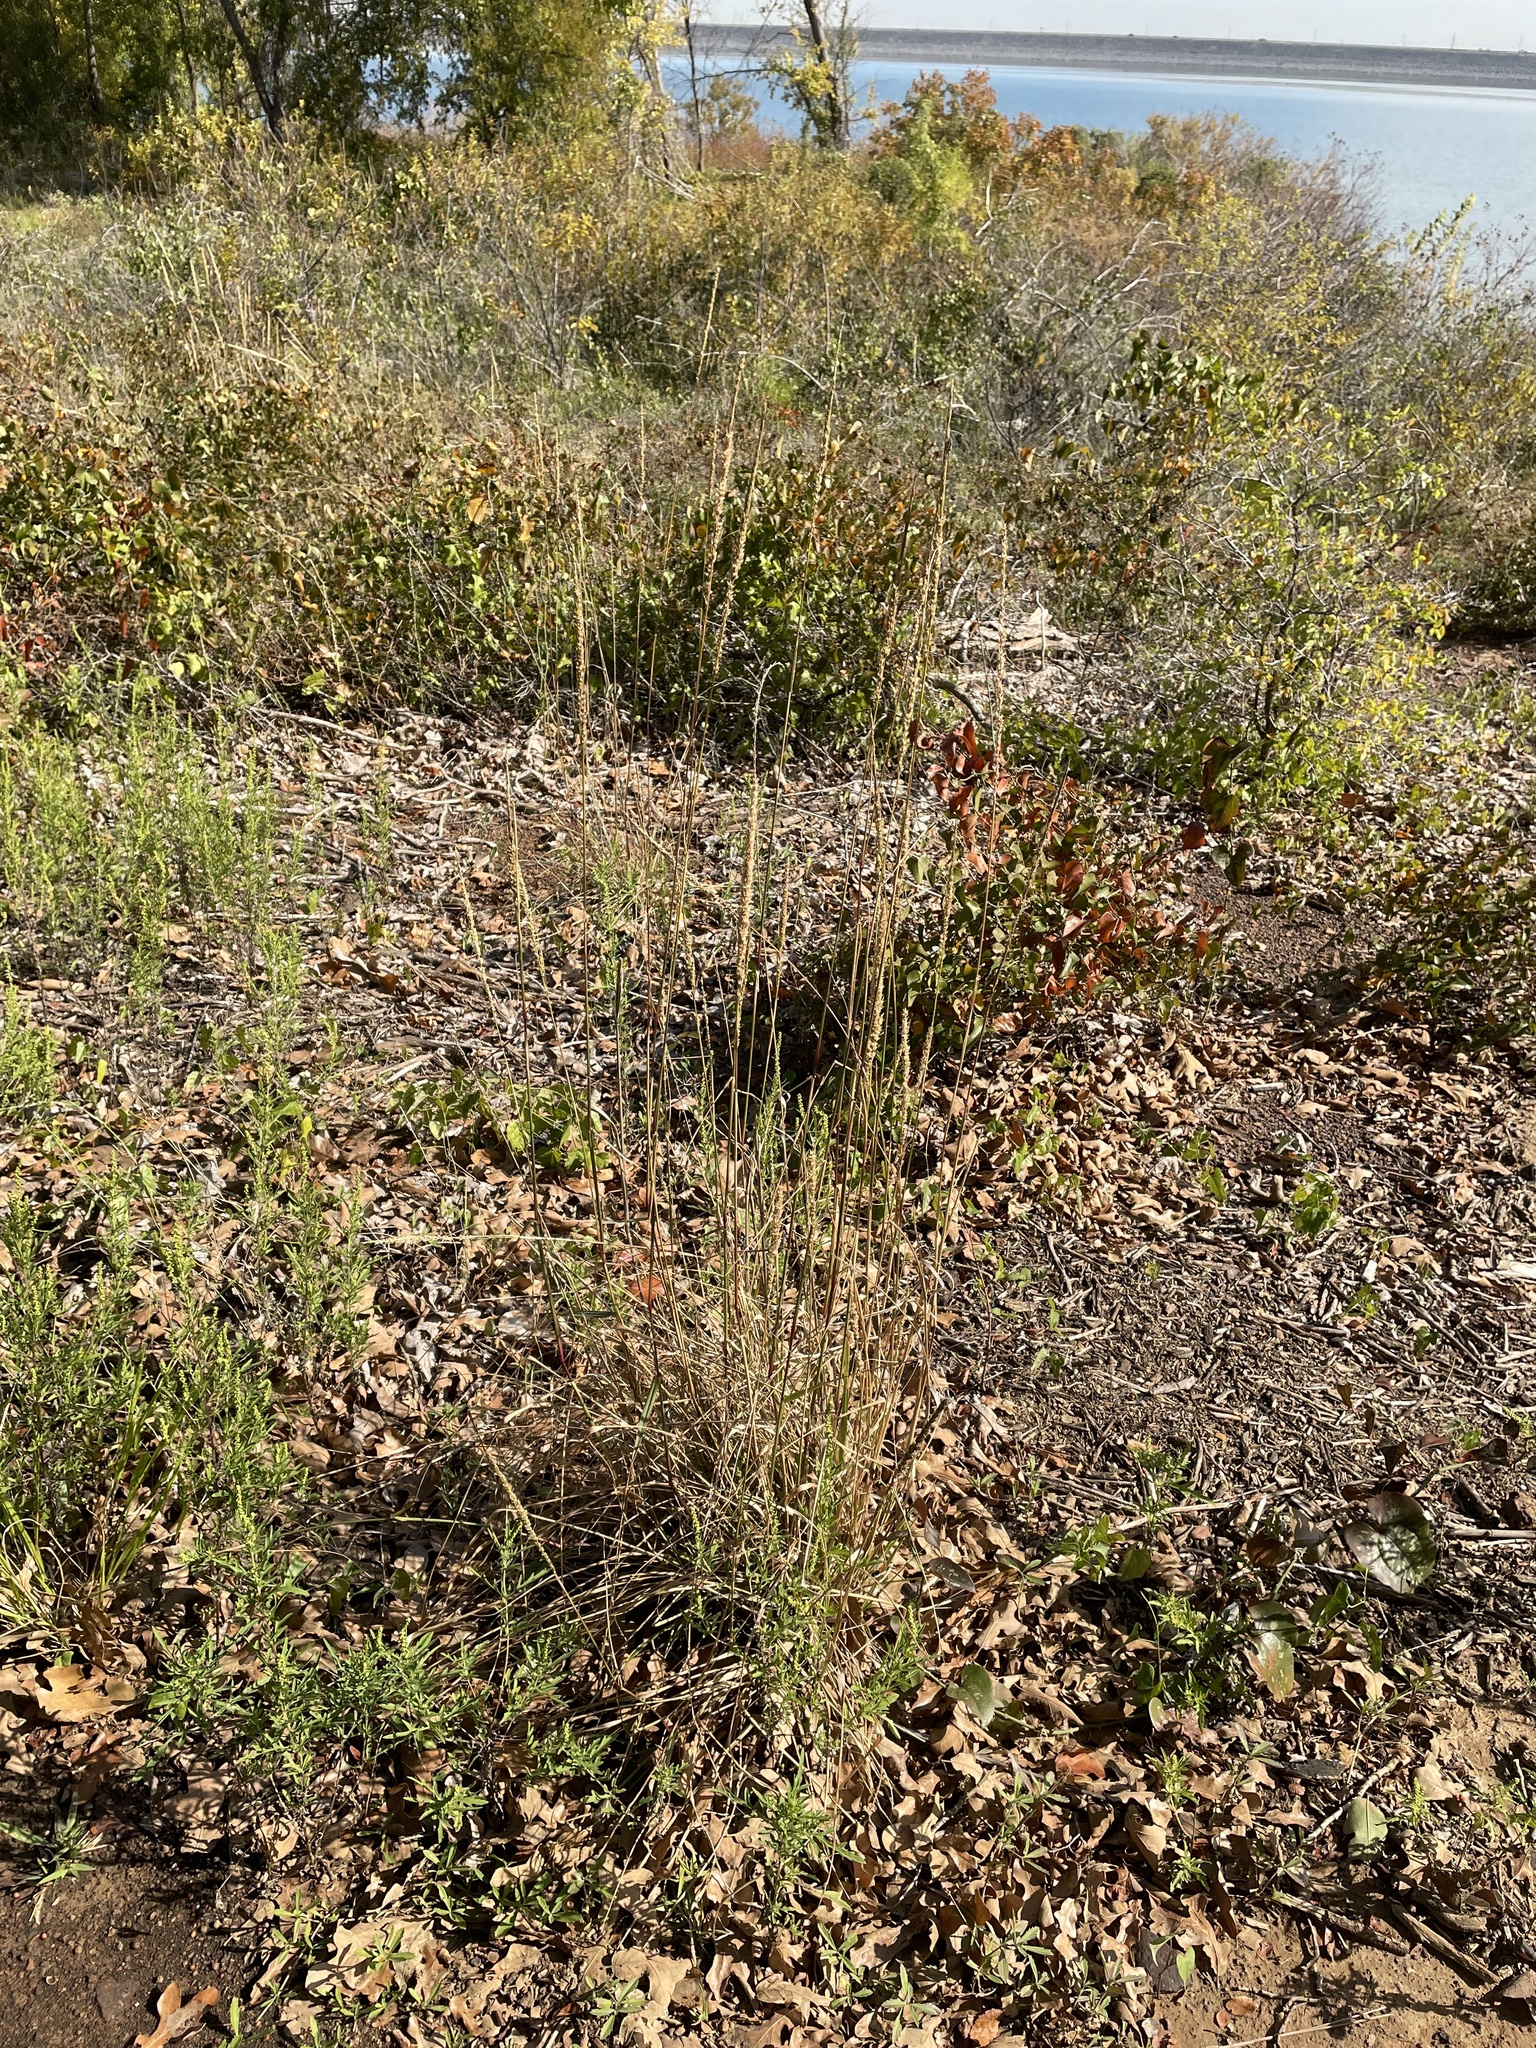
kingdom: Plantae
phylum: Tracheophyta
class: Liliopsida
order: Poales
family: Poaceae
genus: Tridens
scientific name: Tridens strictus
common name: Long-spike tridens
